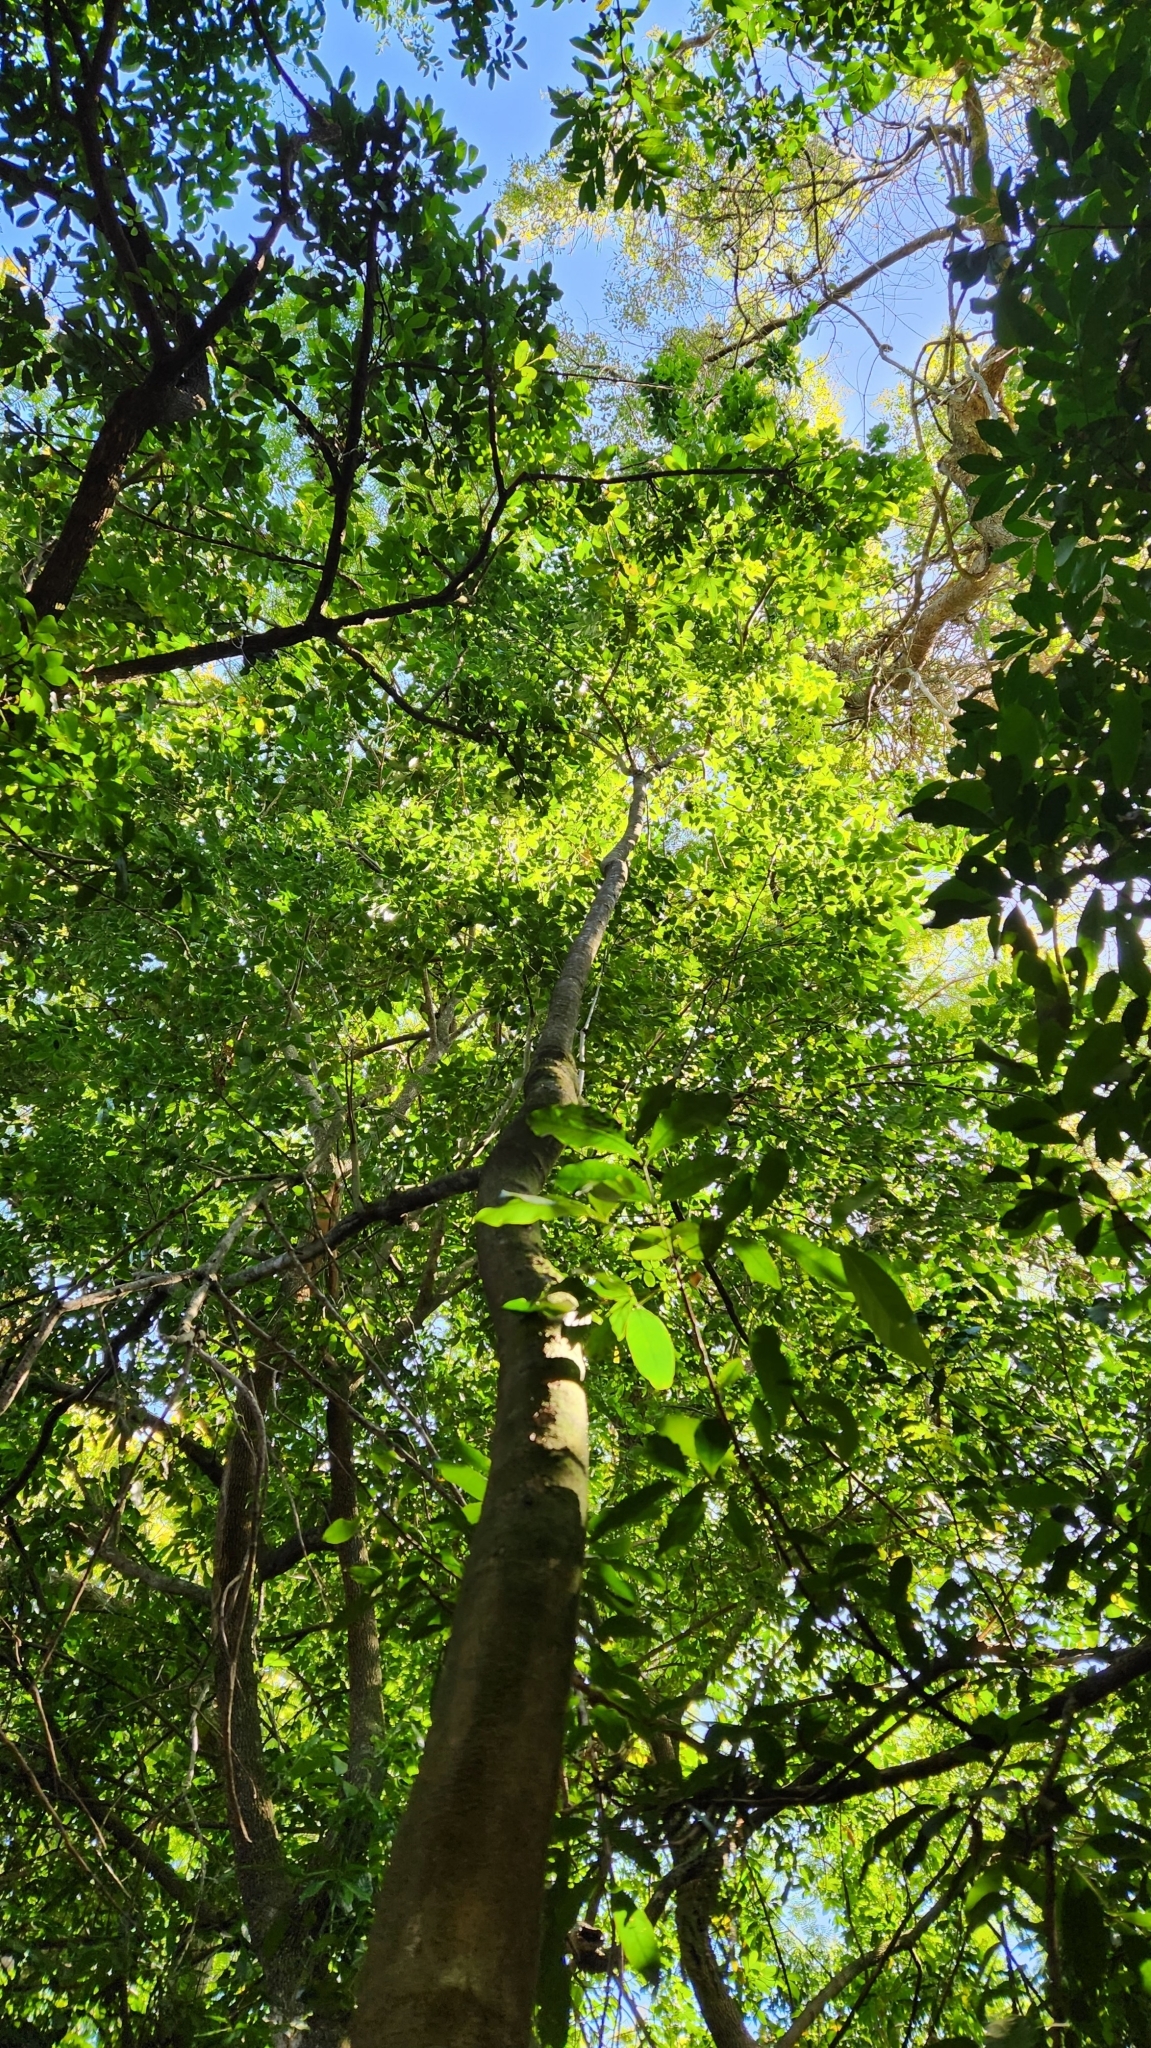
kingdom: Plantae
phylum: Tracheophyta
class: Magnoliopsida
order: Fabales
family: Fabaceae
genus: Dahlstedtia
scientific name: Dahlstedtia muehlbergiana
